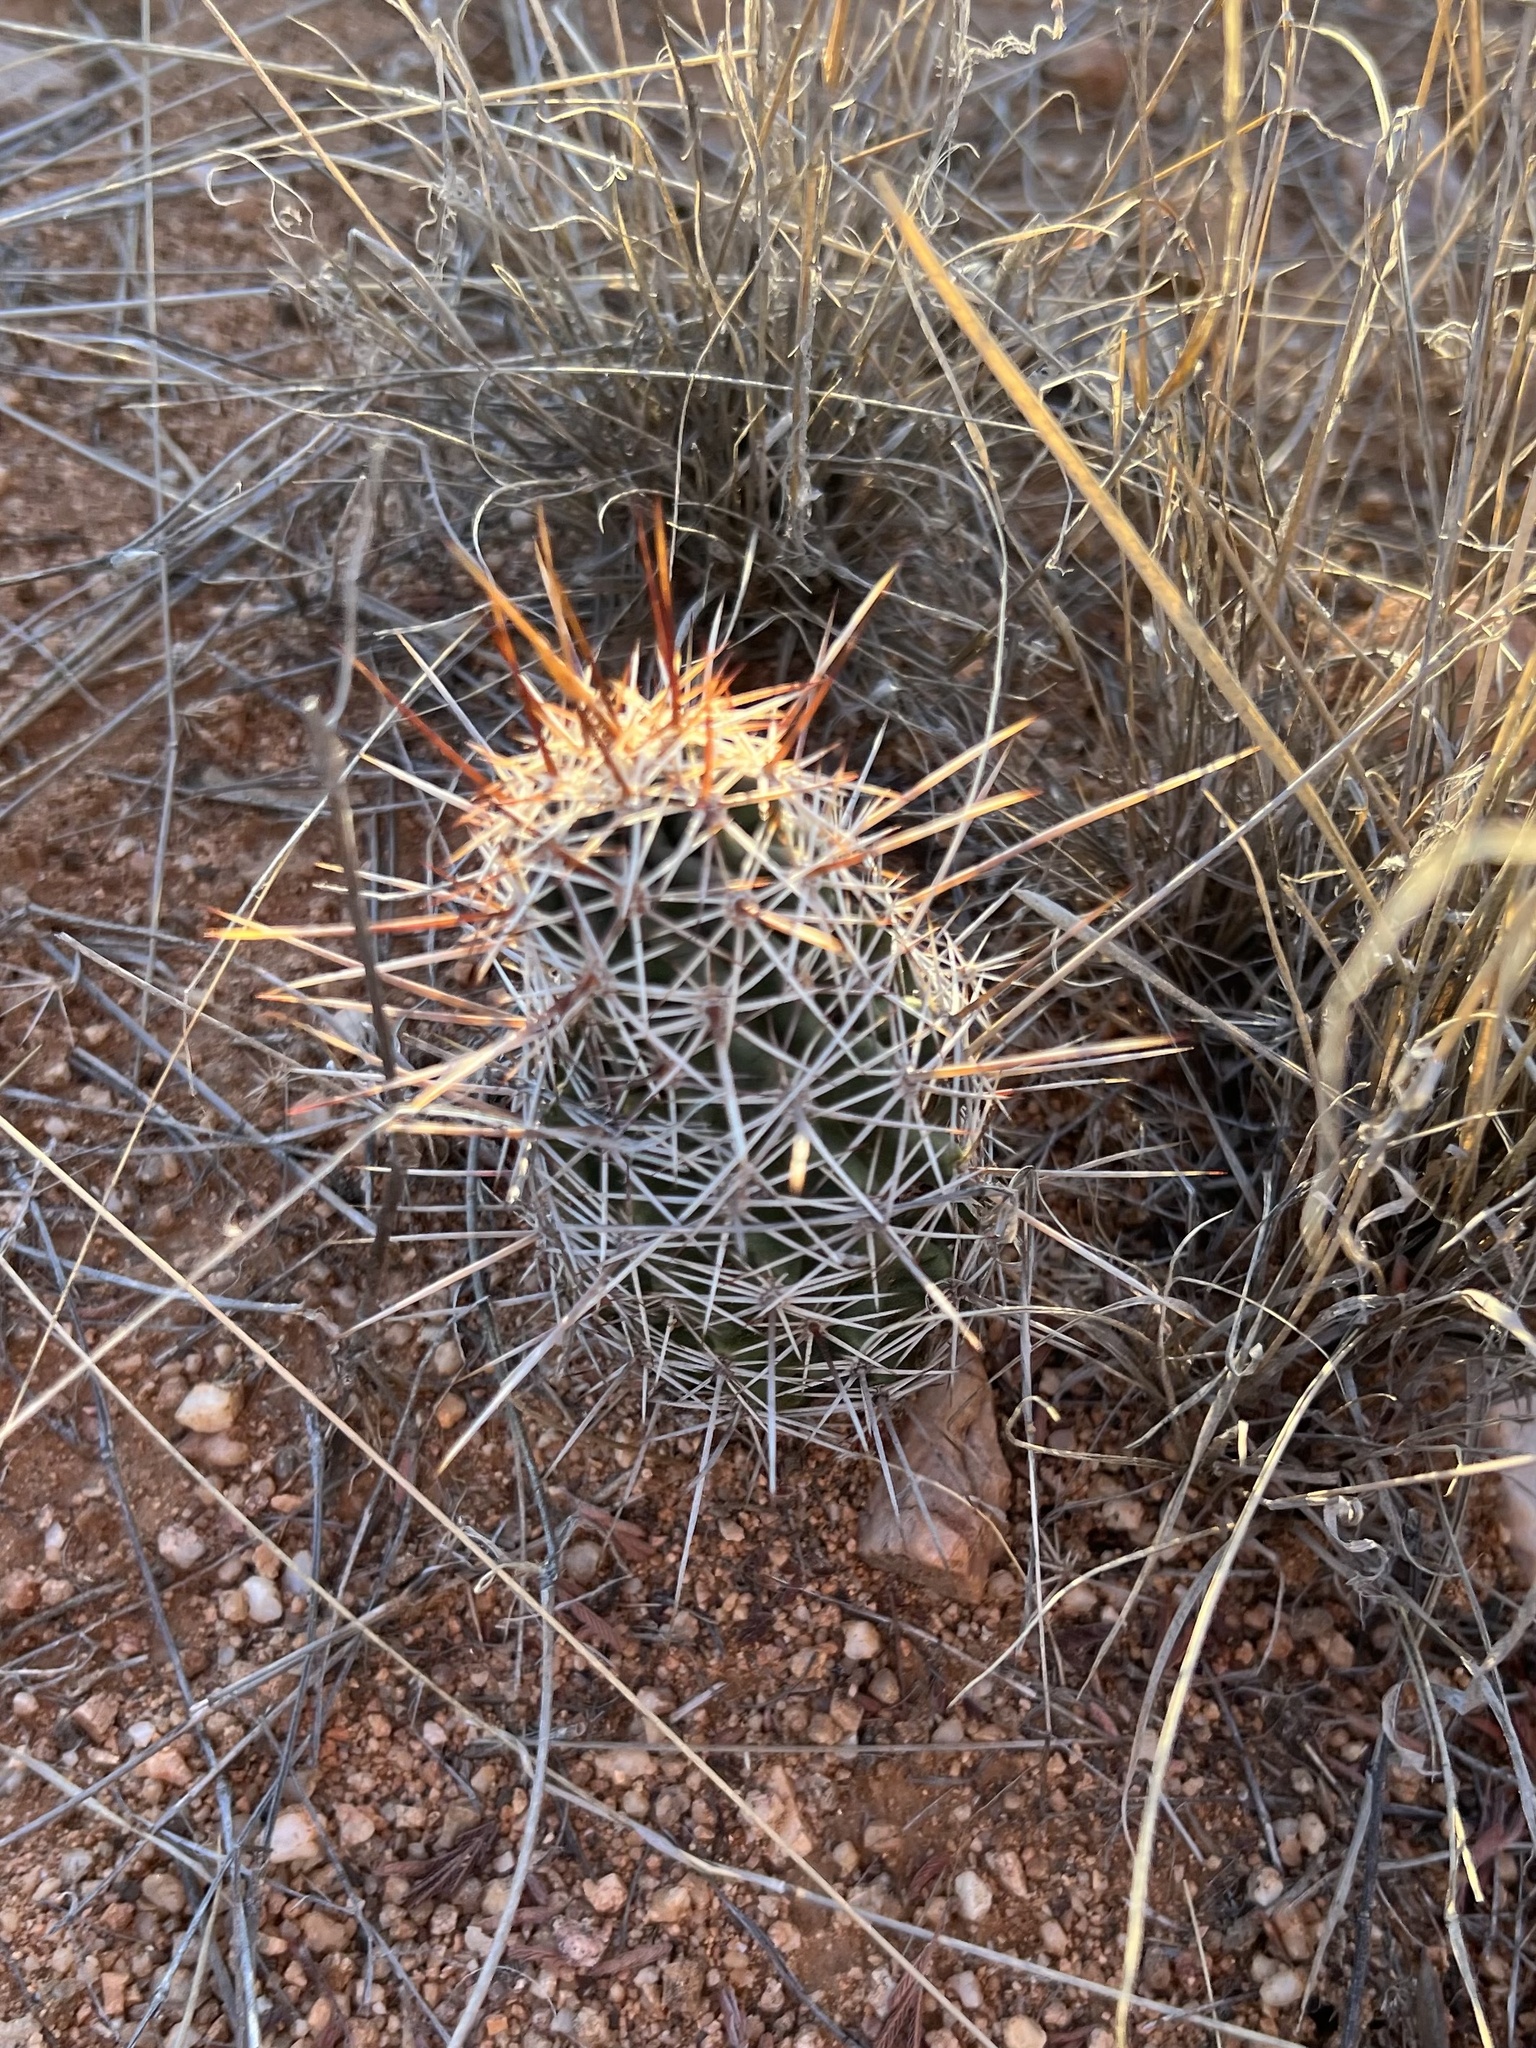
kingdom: Plantae
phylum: Tracheophyta
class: Magnoliopsida
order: Caryophyllales
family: Cactaceae
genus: Echinocereus
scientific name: Echinocereus fasciculatus
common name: Bundle hedgehog
